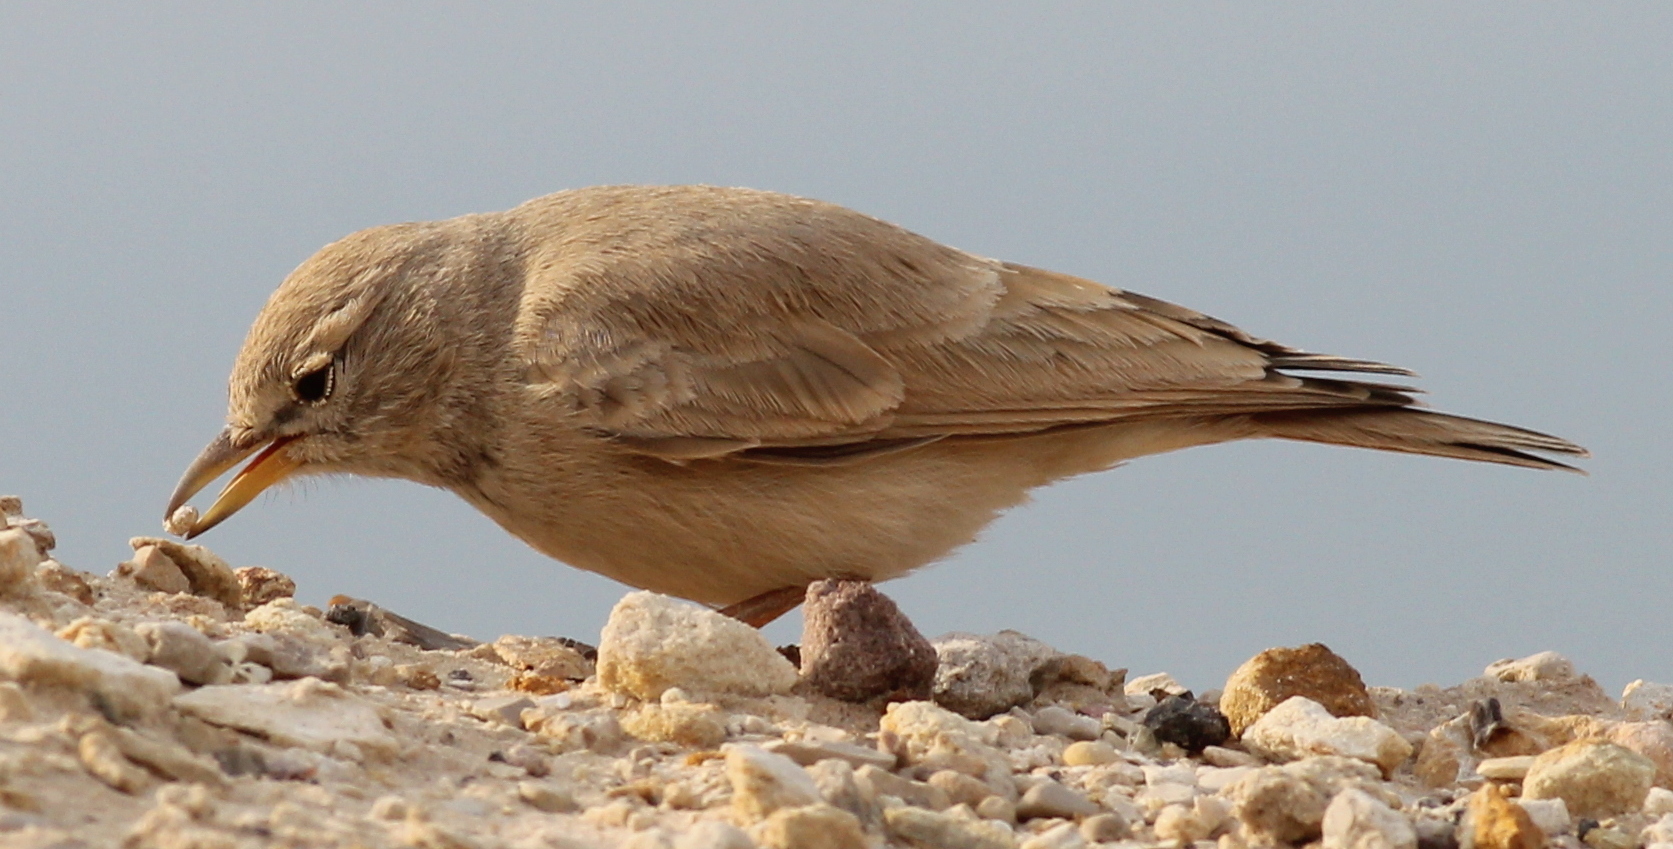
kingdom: Animalia
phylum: Chordata
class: Aves
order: Passeriformes
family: Alaudidae
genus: Ammomanes
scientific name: Ammomanes deserti
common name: Desert lark
